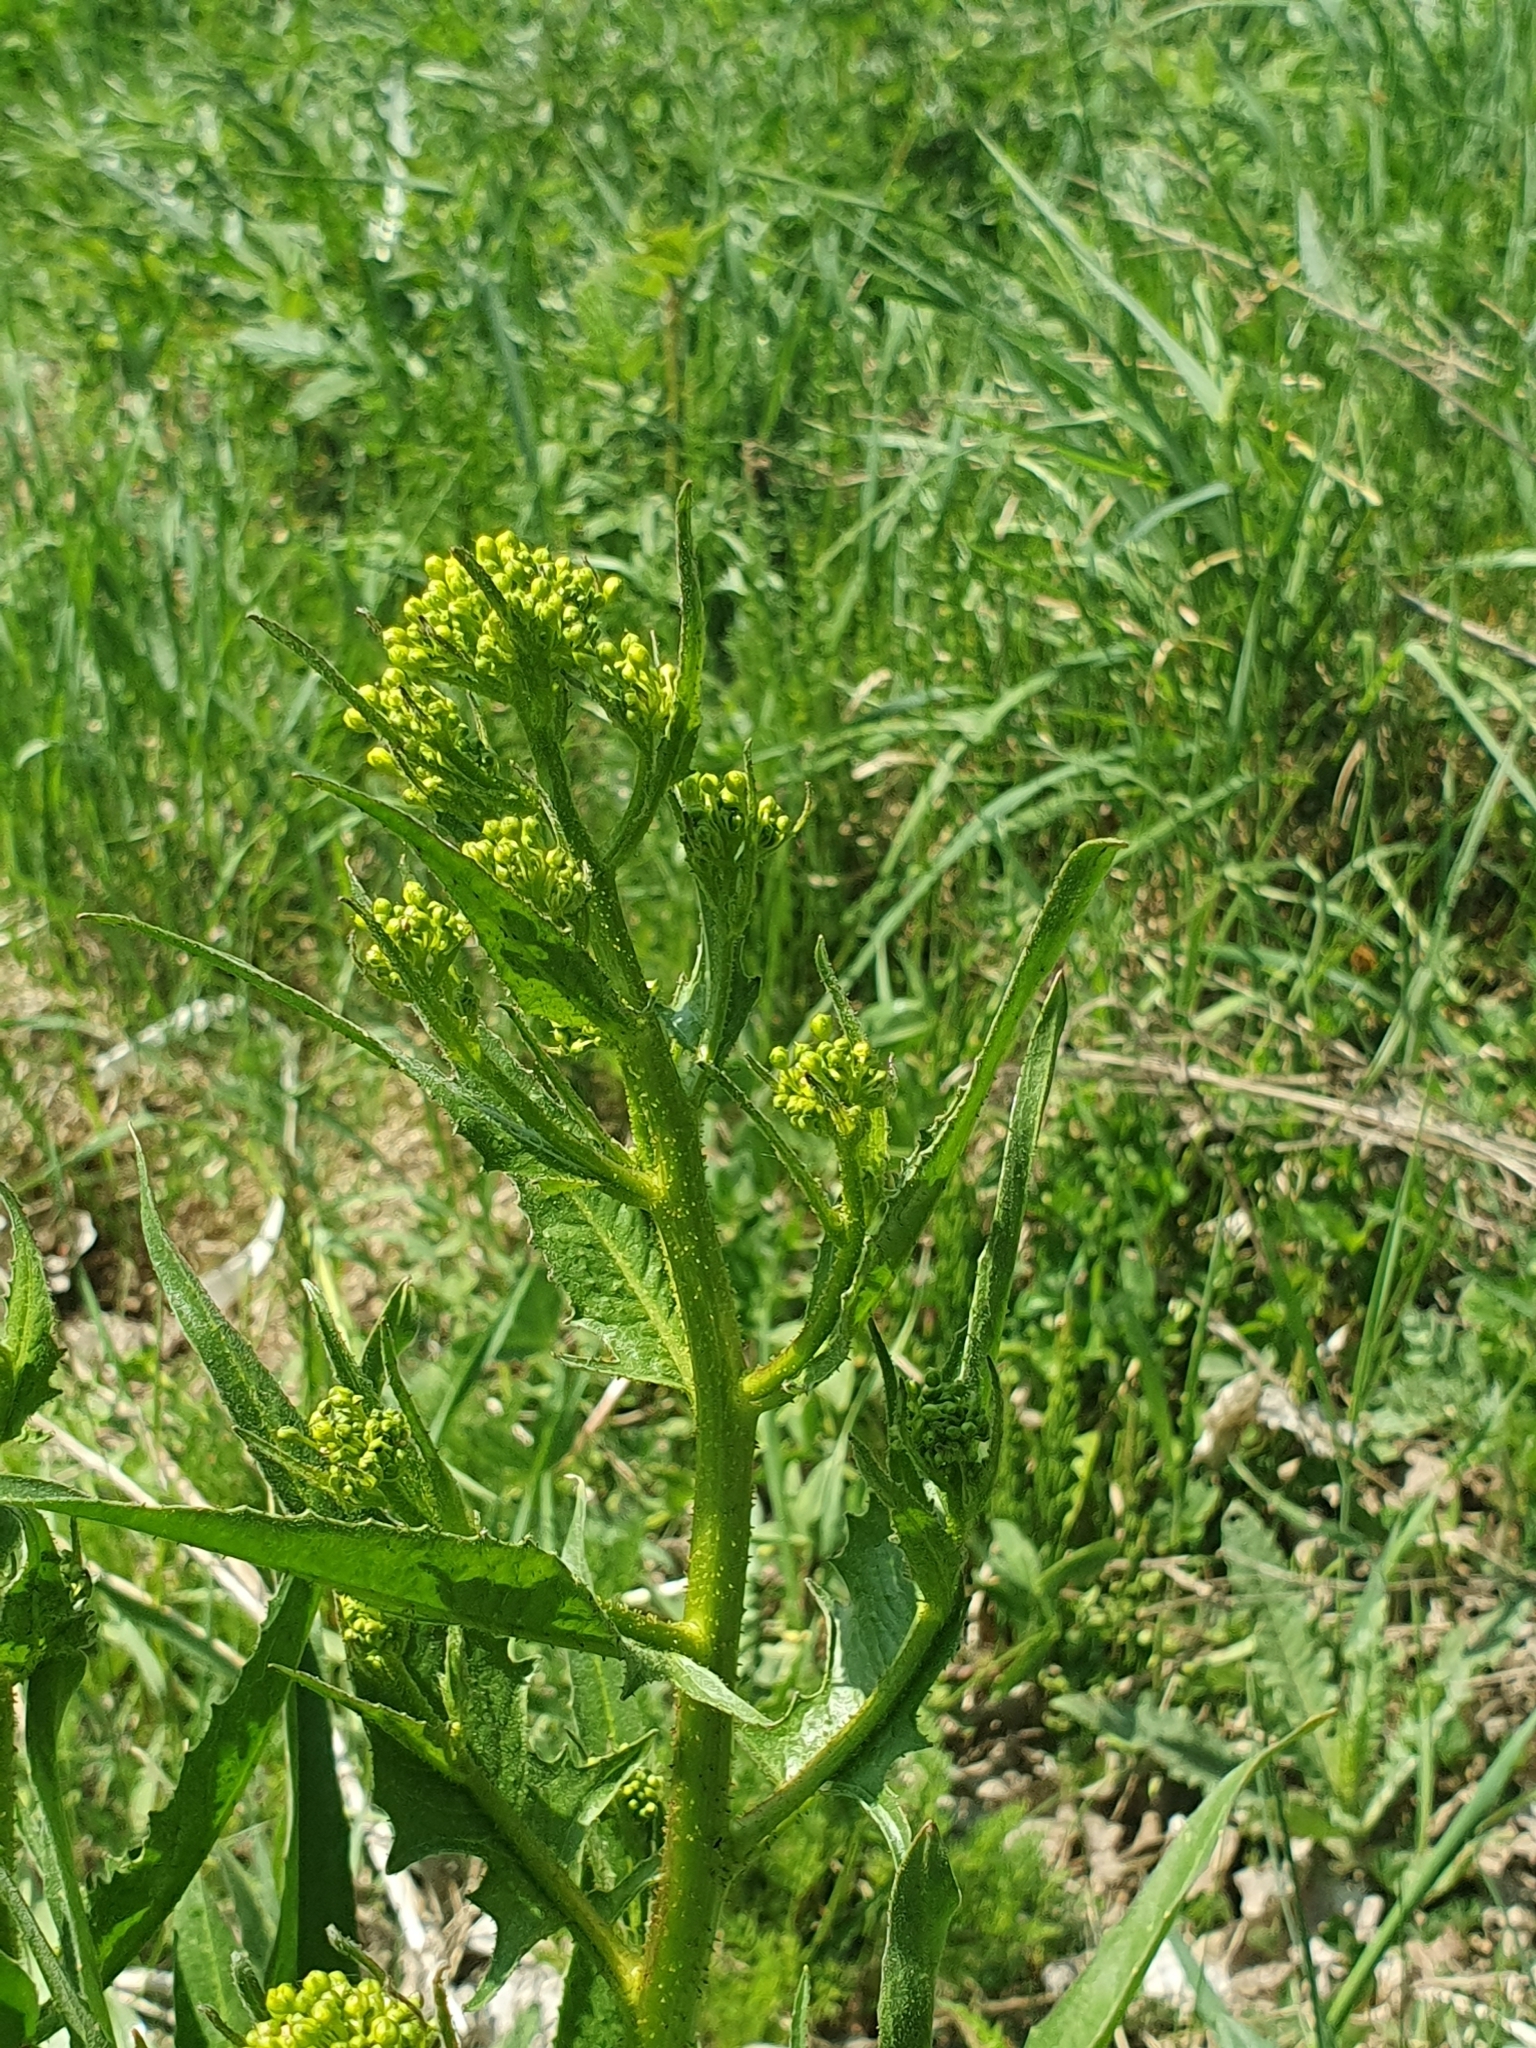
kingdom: Plantae
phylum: Tracheophyta
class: Magnoliopsida
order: Brassicales
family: Brassicaceae
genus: Bunias
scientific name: Bunias orientalis
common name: Warty-cabbage
